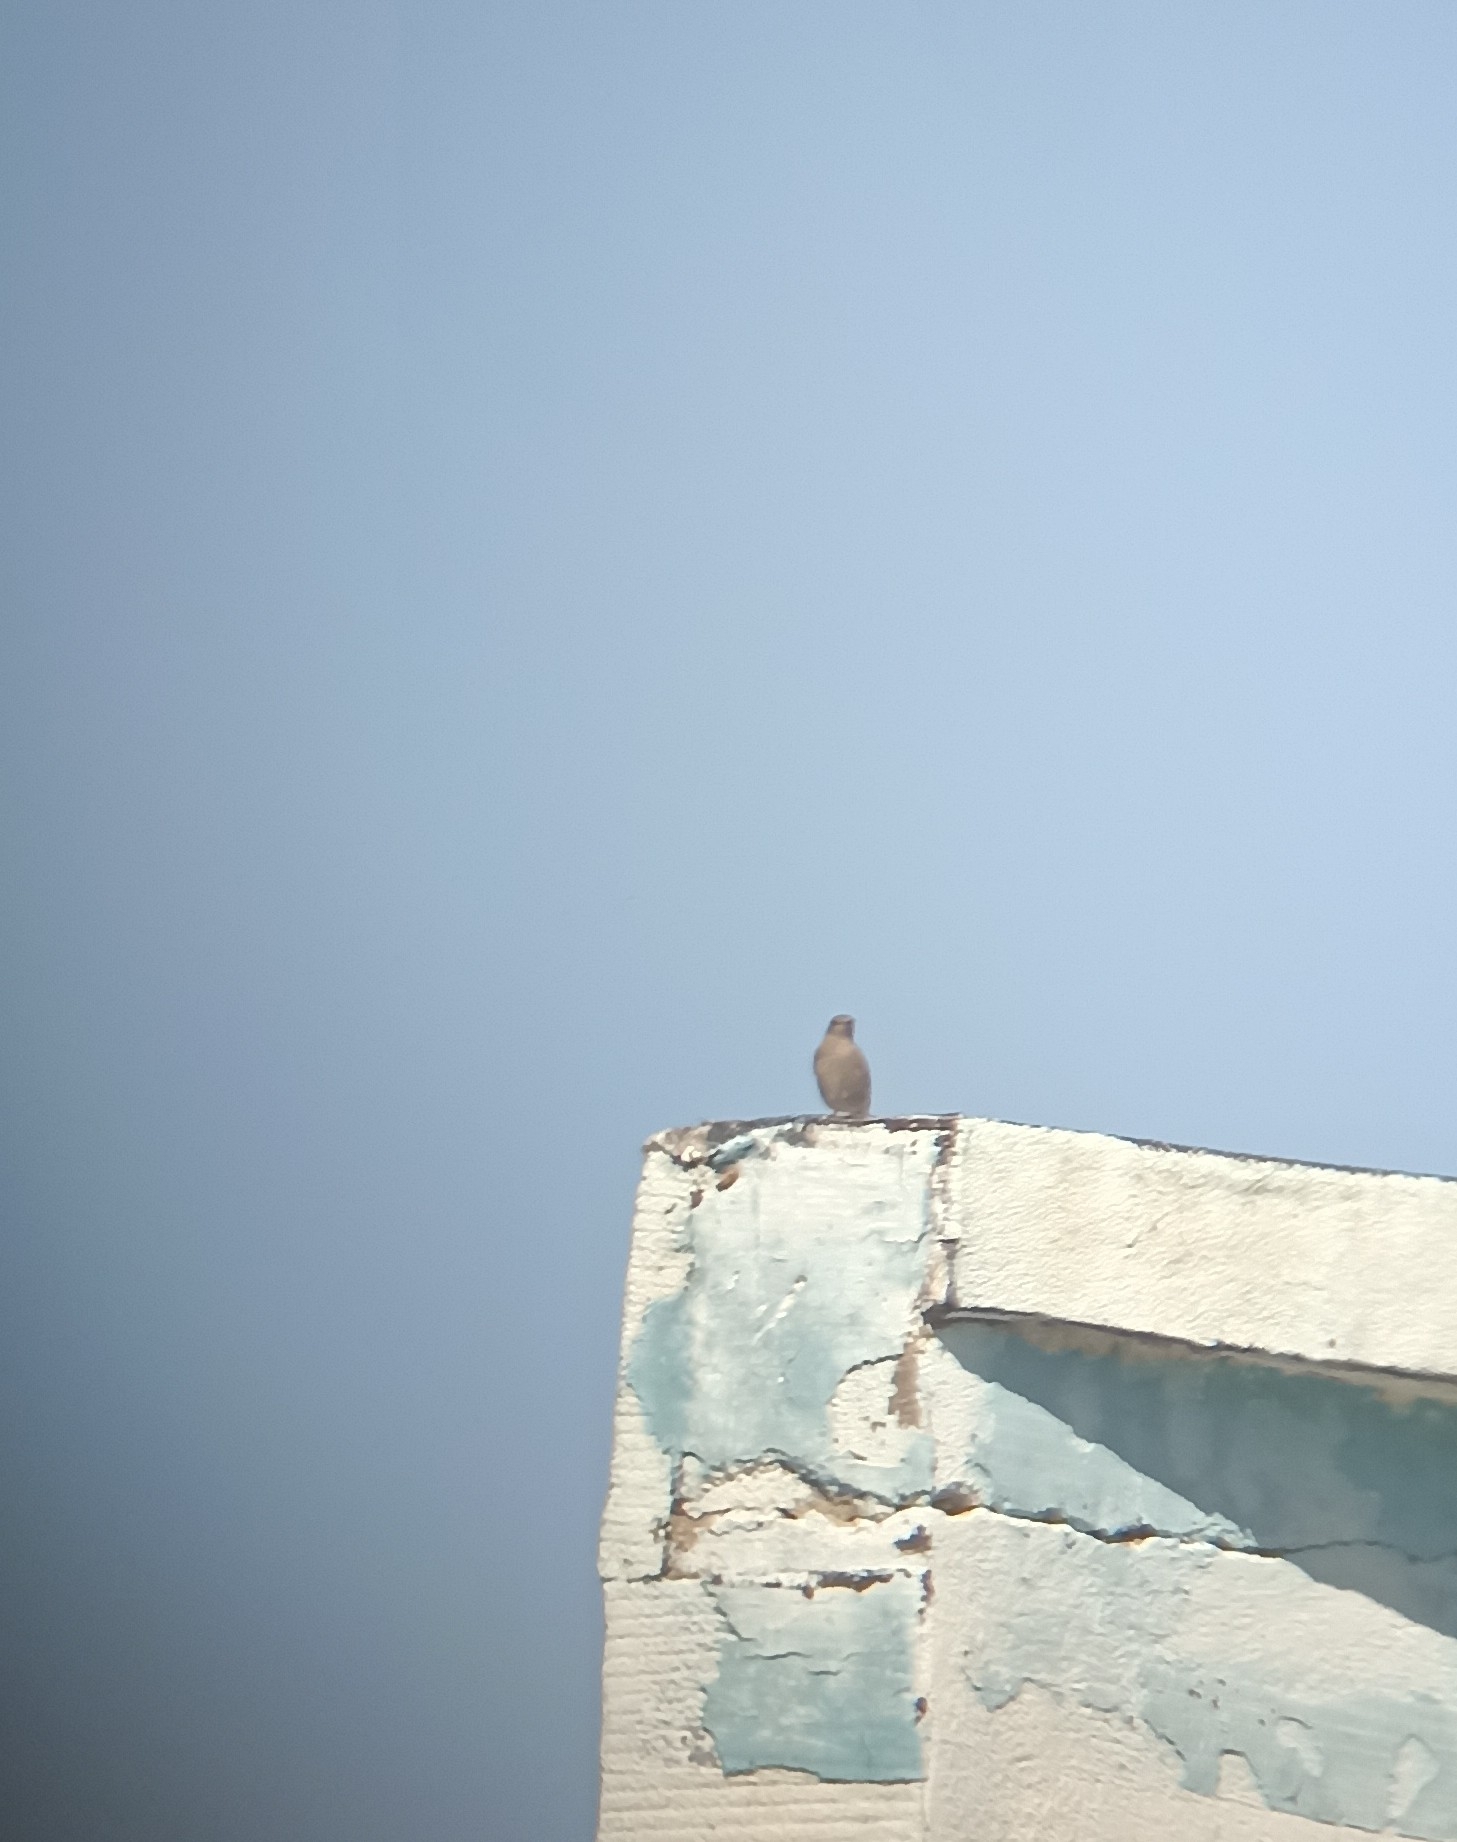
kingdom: Animalia
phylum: Chordata
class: Aves
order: Passeriformes
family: Muscicapidae
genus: Phoenicurus
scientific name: Phoenicurus ochruros
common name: Black redstart
